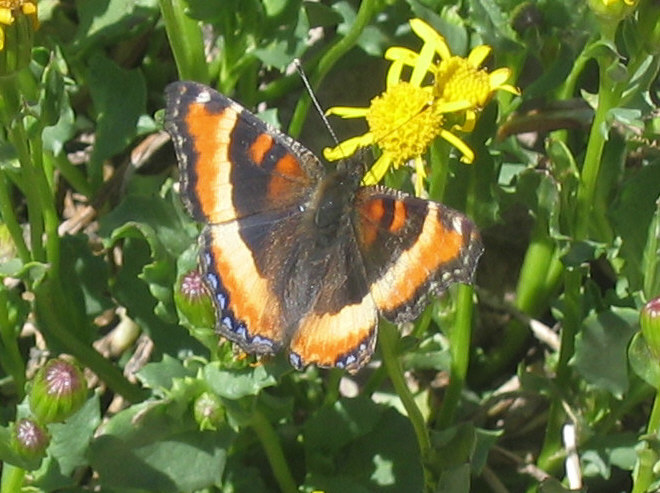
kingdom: Animalia
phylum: Arthropoda
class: Insecta
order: Lepidoptera
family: Nymphalidae
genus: Aglais
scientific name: Aglais milberti
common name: Milbert's tortoiseshell
